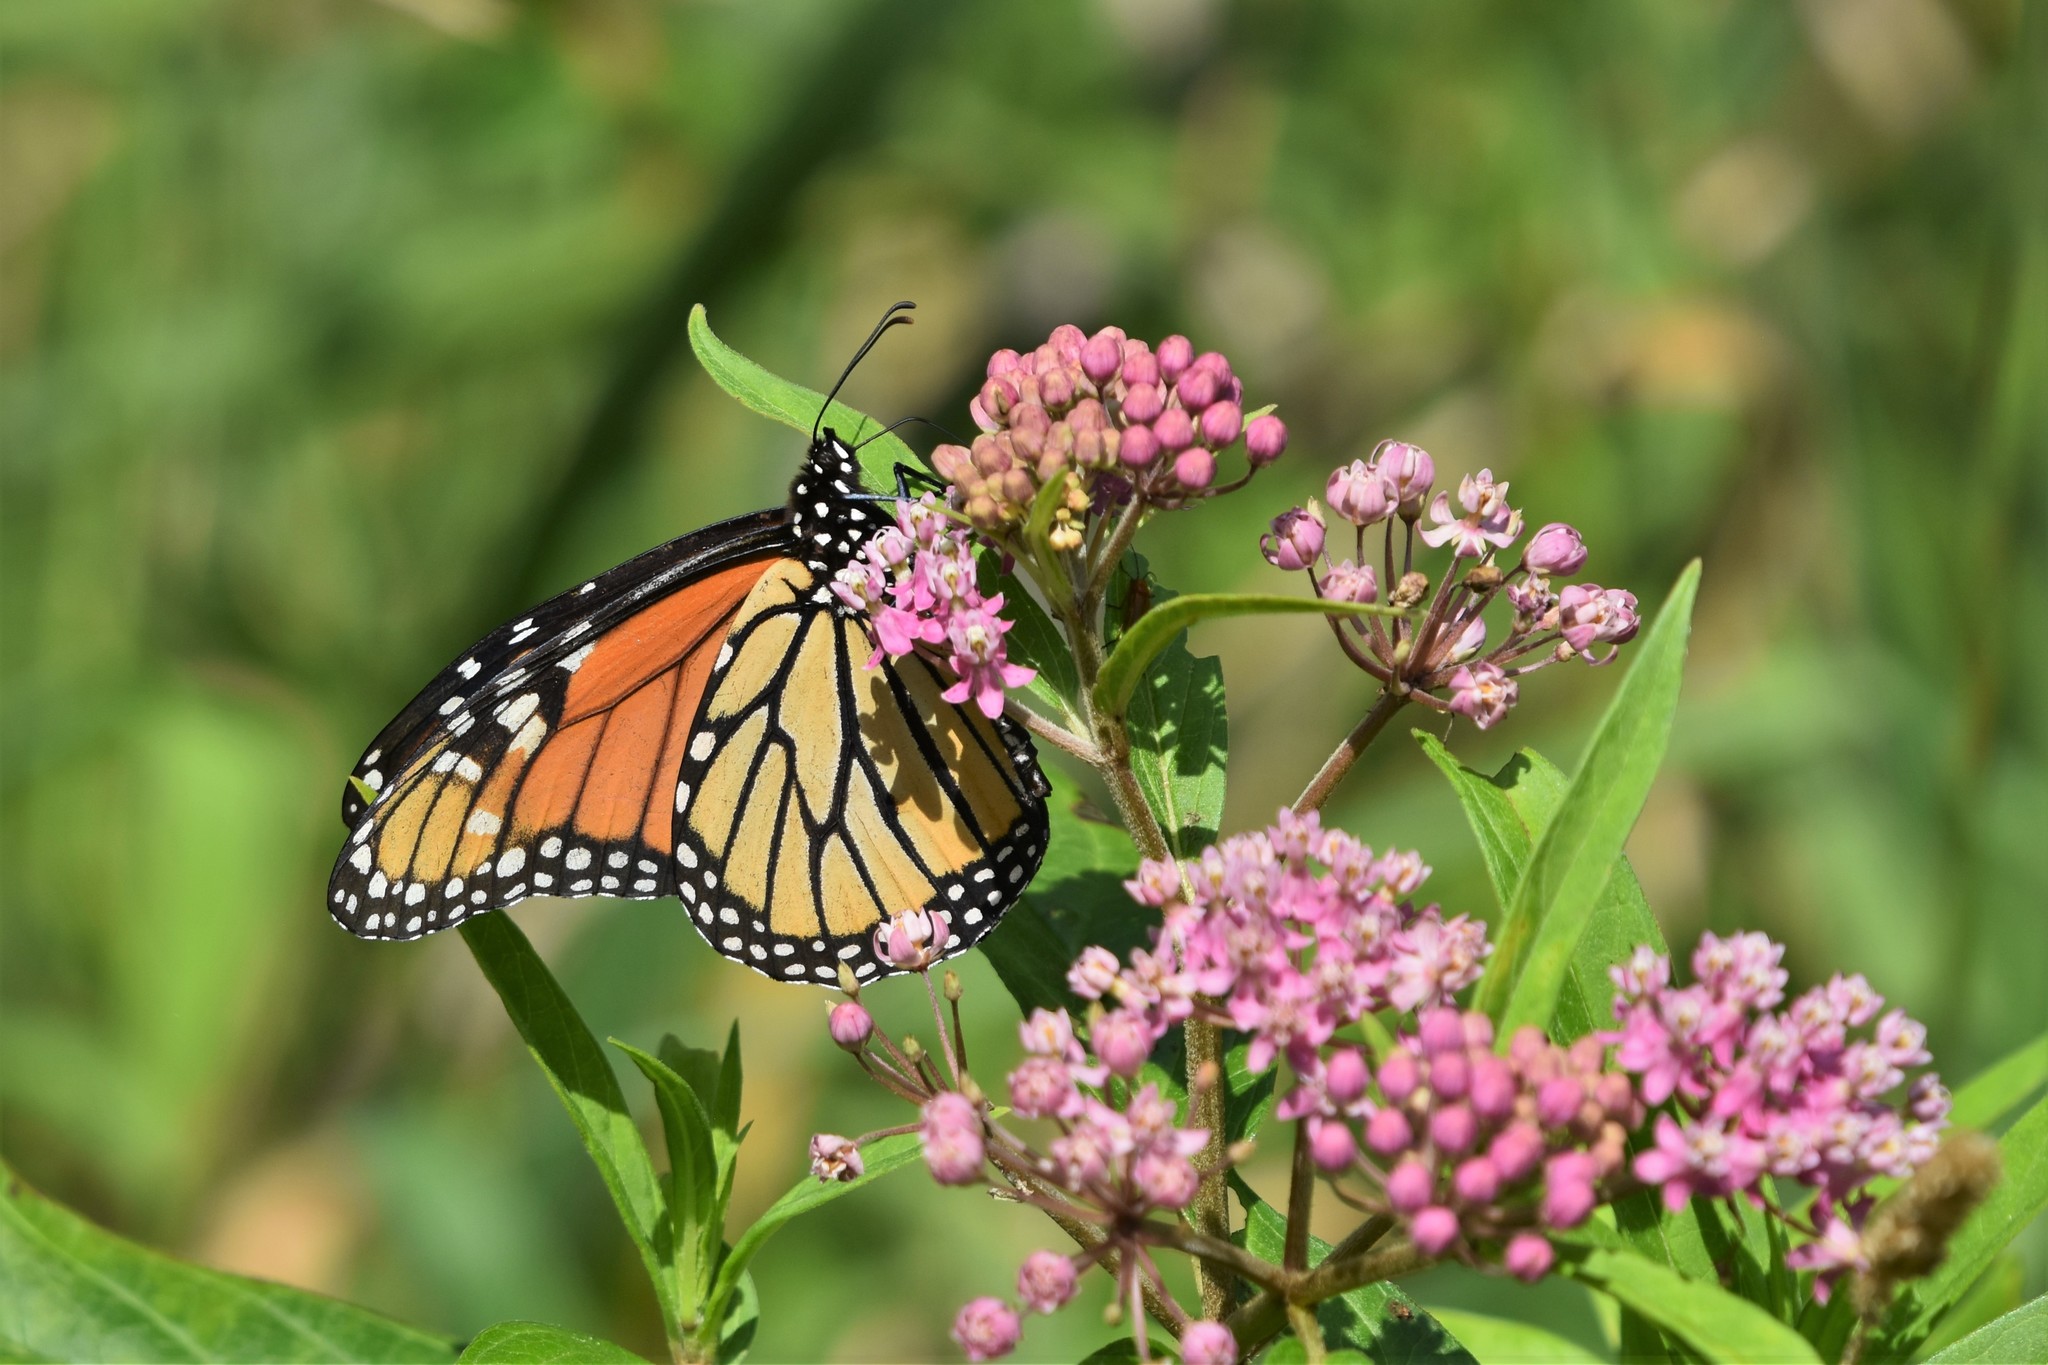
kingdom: Animalia
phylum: Arthropoda
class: Insecta
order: Lepidoptera
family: Nymphalidae
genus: Danaus
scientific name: Danaus plexippus
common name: Monarch
